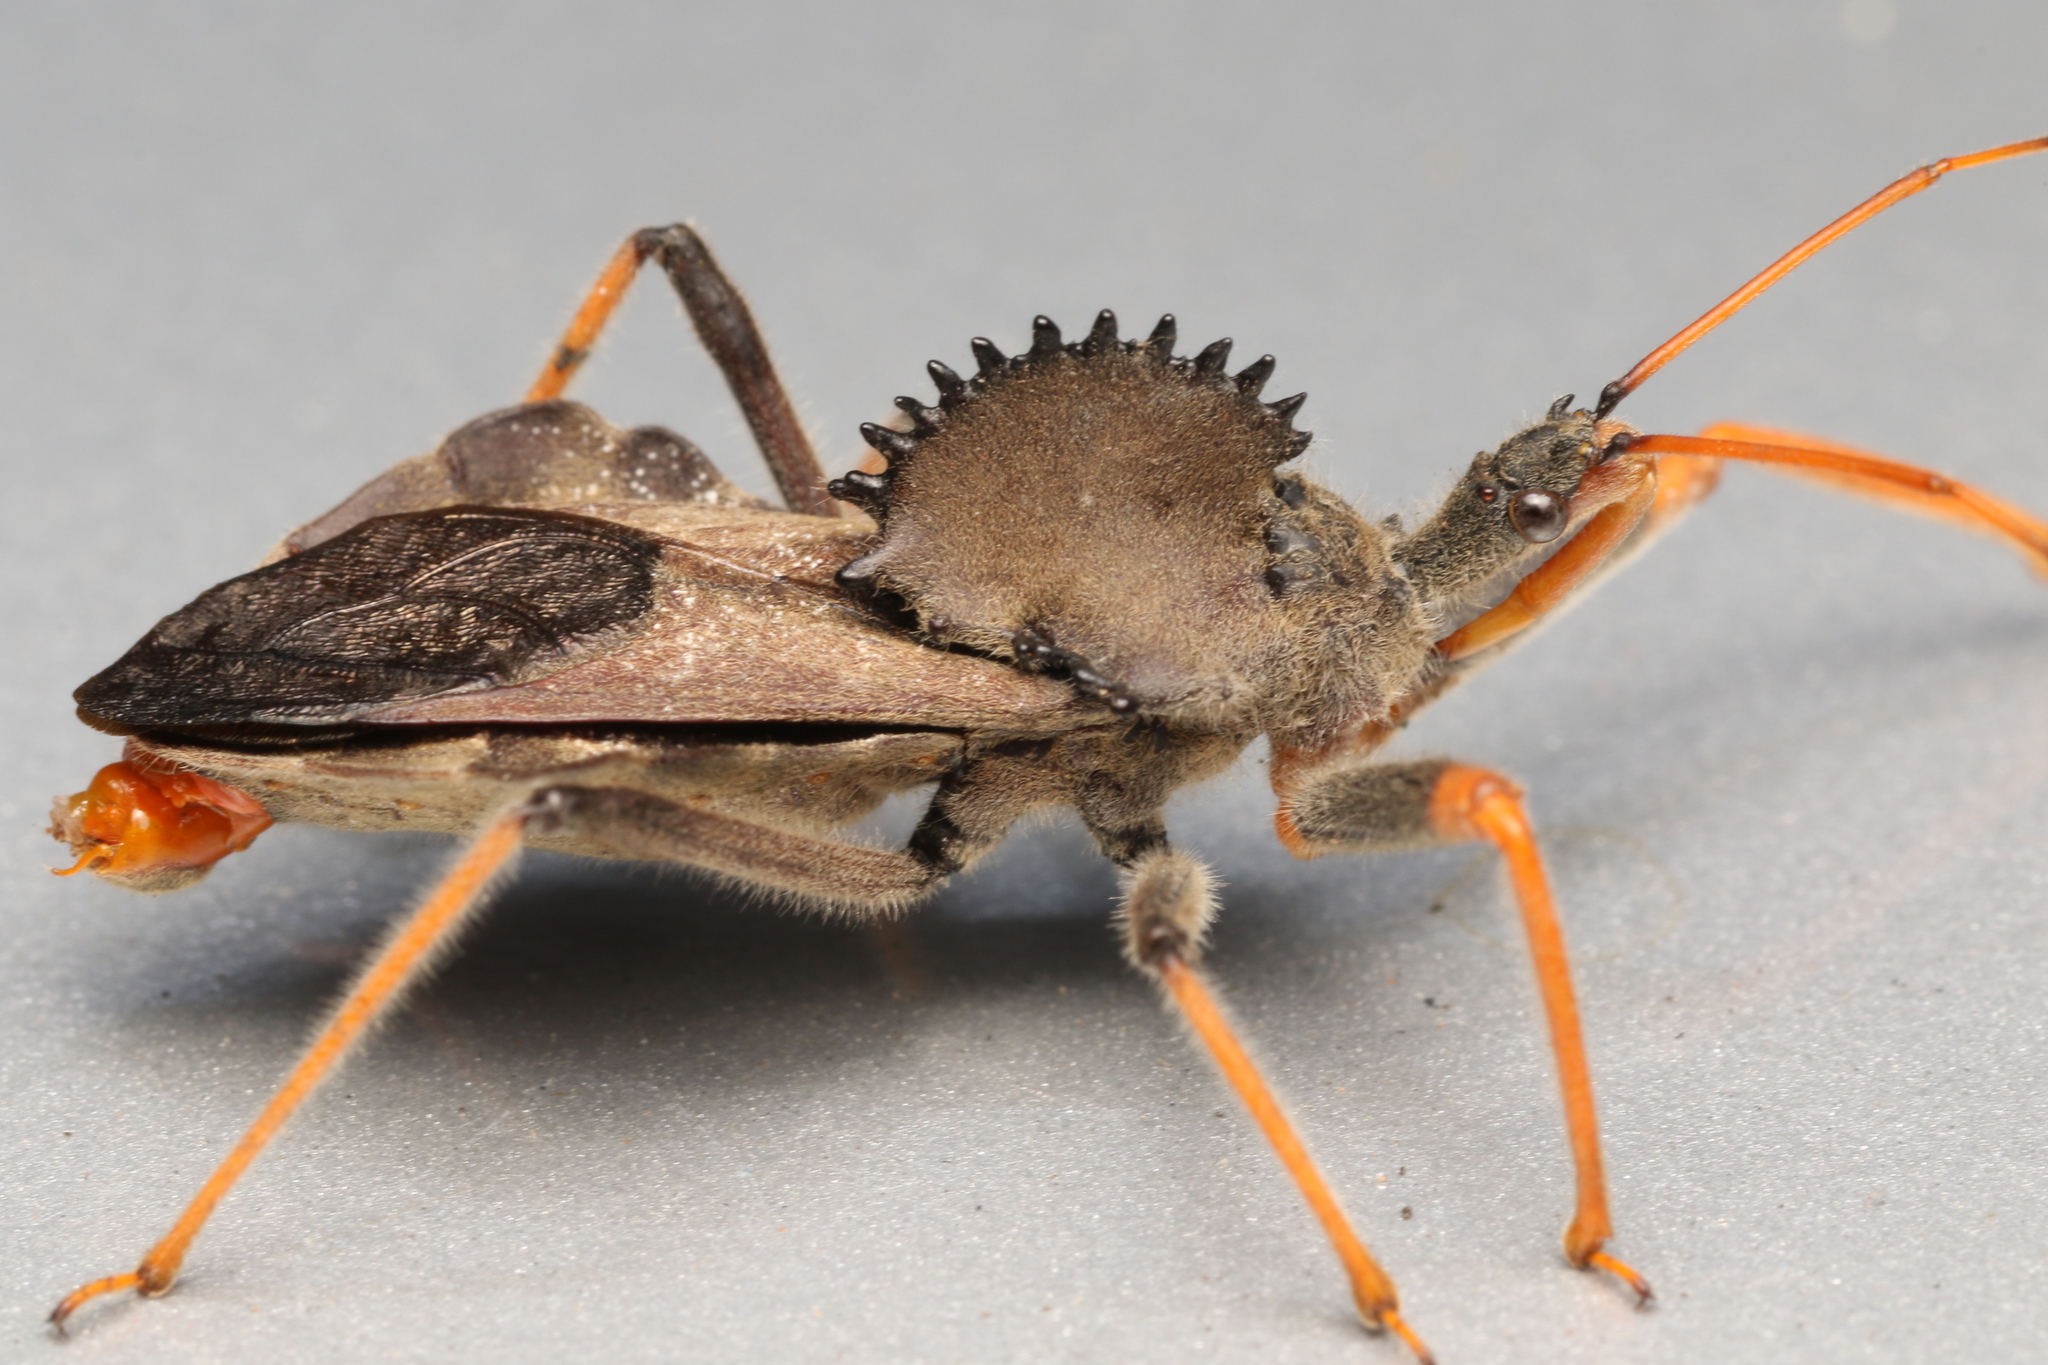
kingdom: Animalia
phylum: Arthropoda
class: Insecta
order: Hemiptera
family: Reduviidae
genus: Arilus
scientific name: Arilus carinatus
